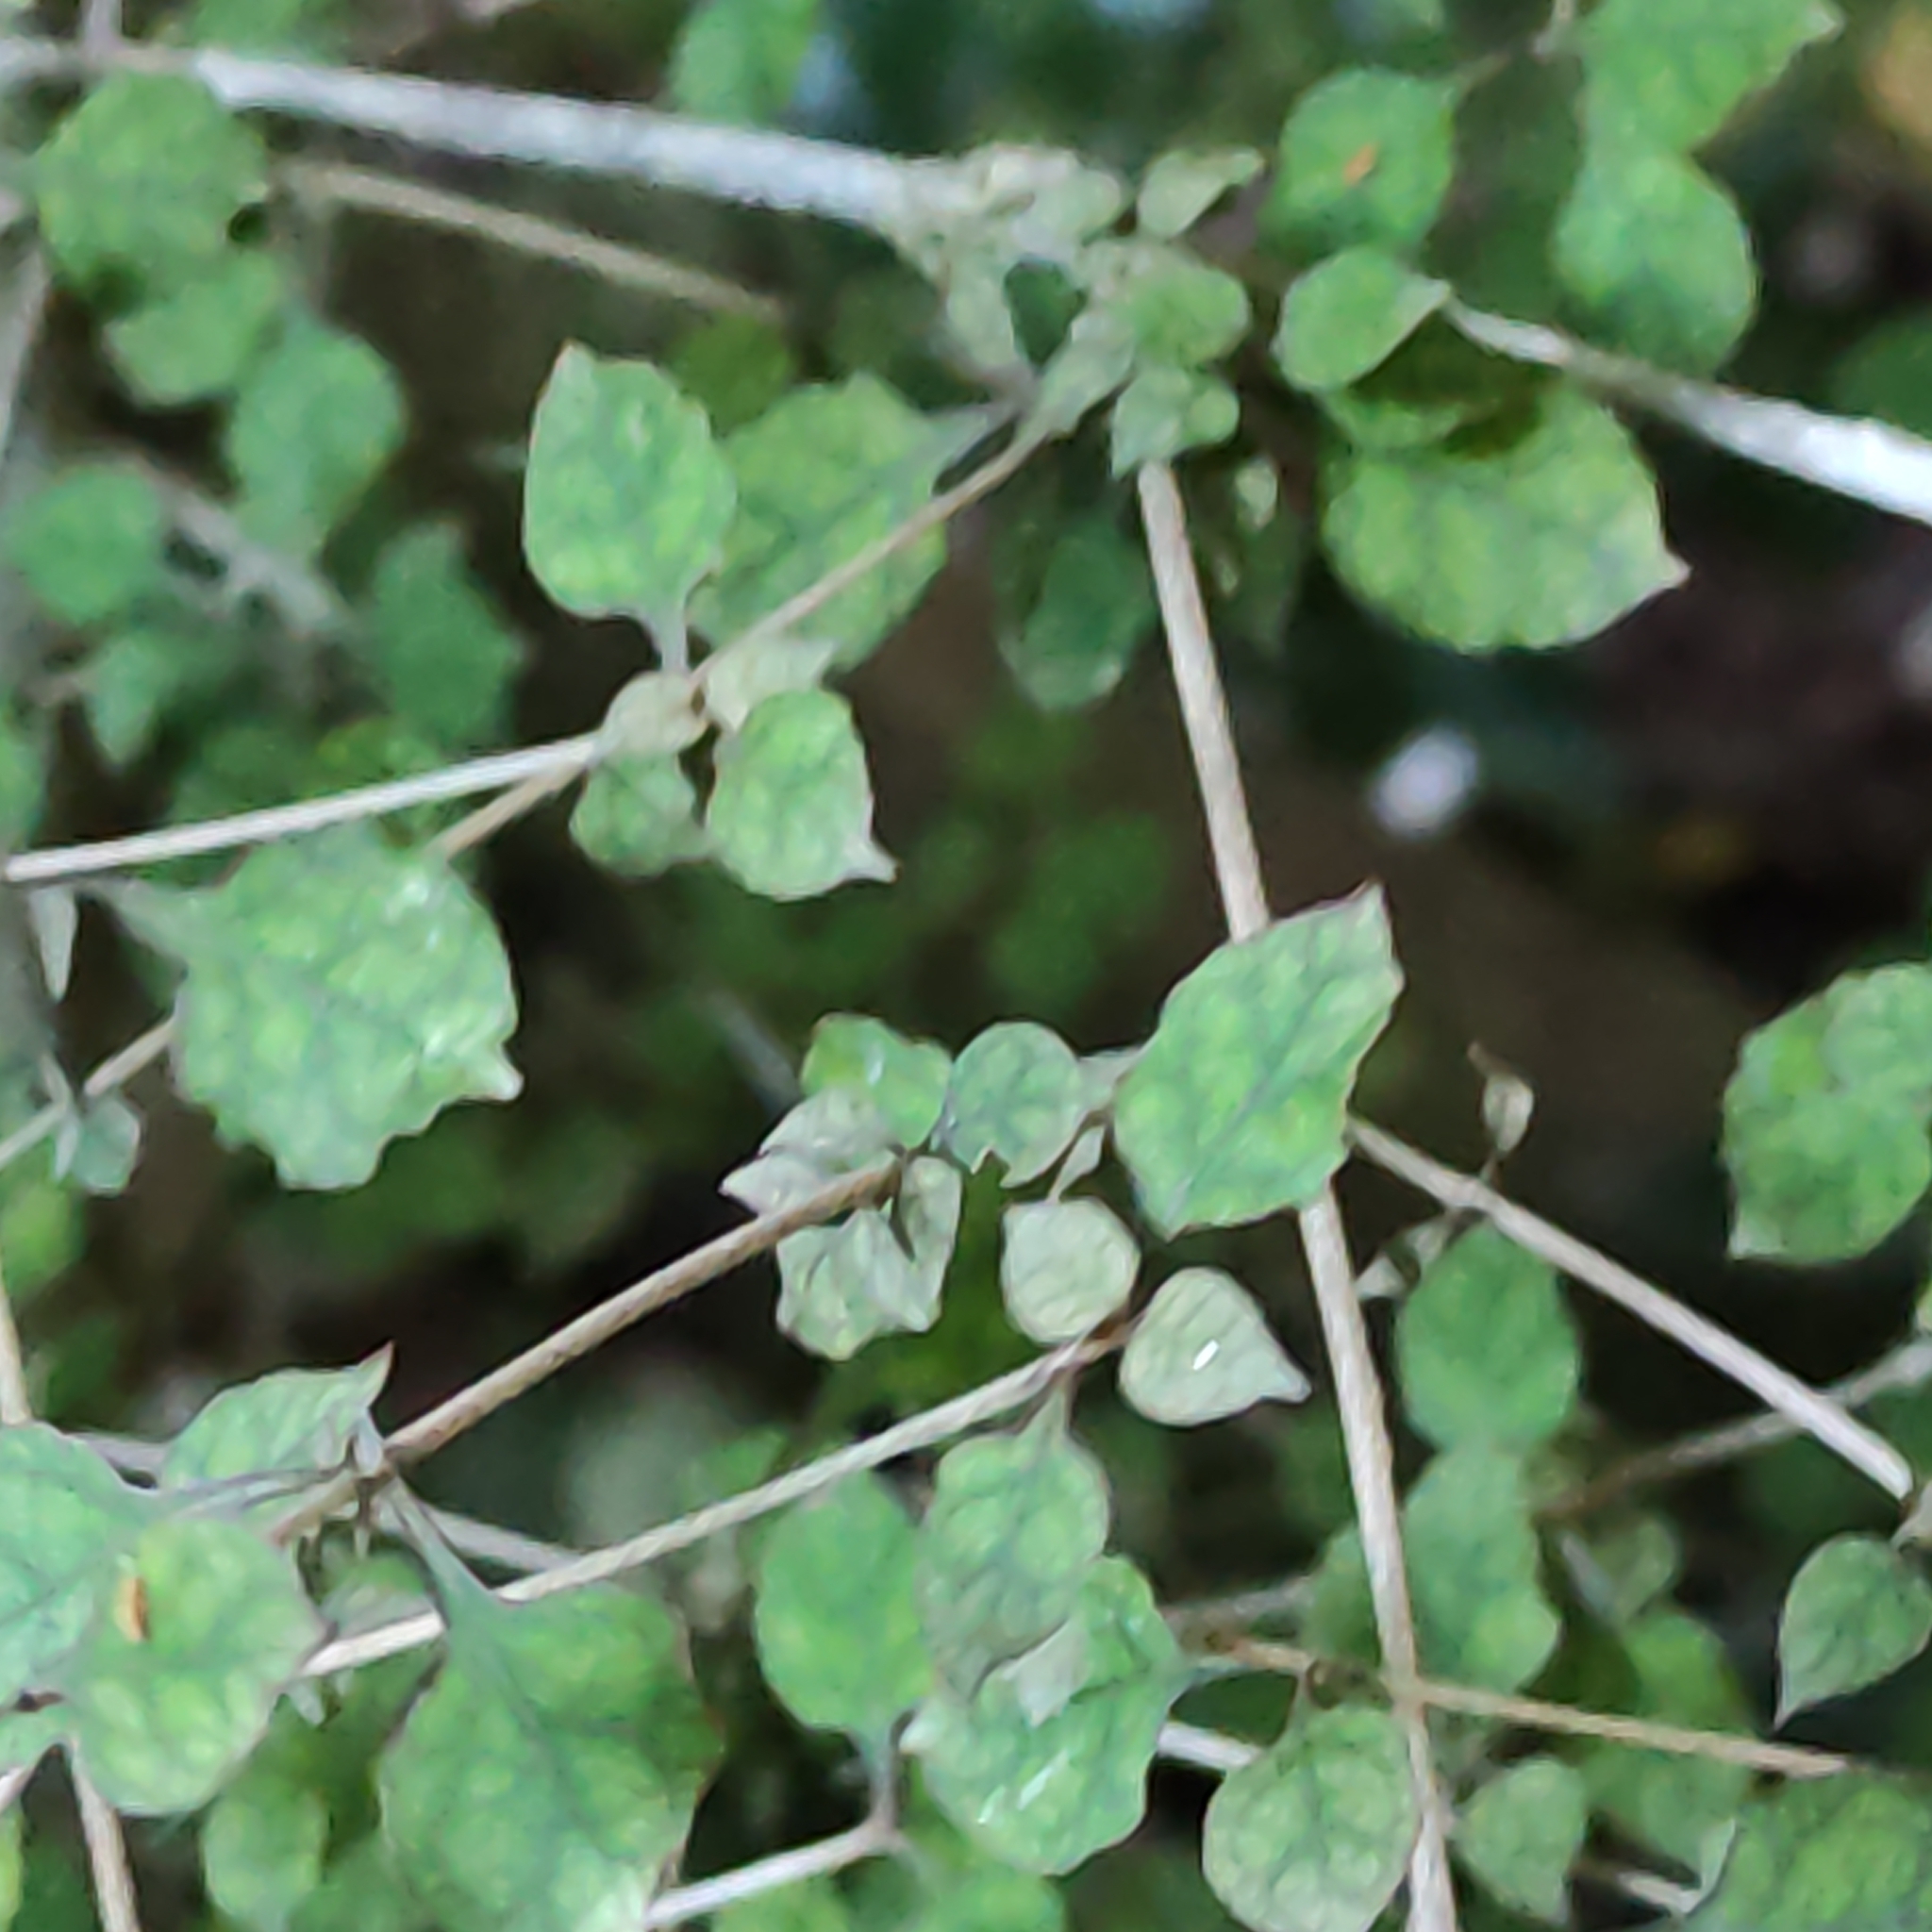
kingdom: Plantae
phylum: Tracheophyta
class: Magnoliopsida
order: Gentianales
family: Rubiaceae
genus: Coprosma
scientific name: Coprosma areolata
